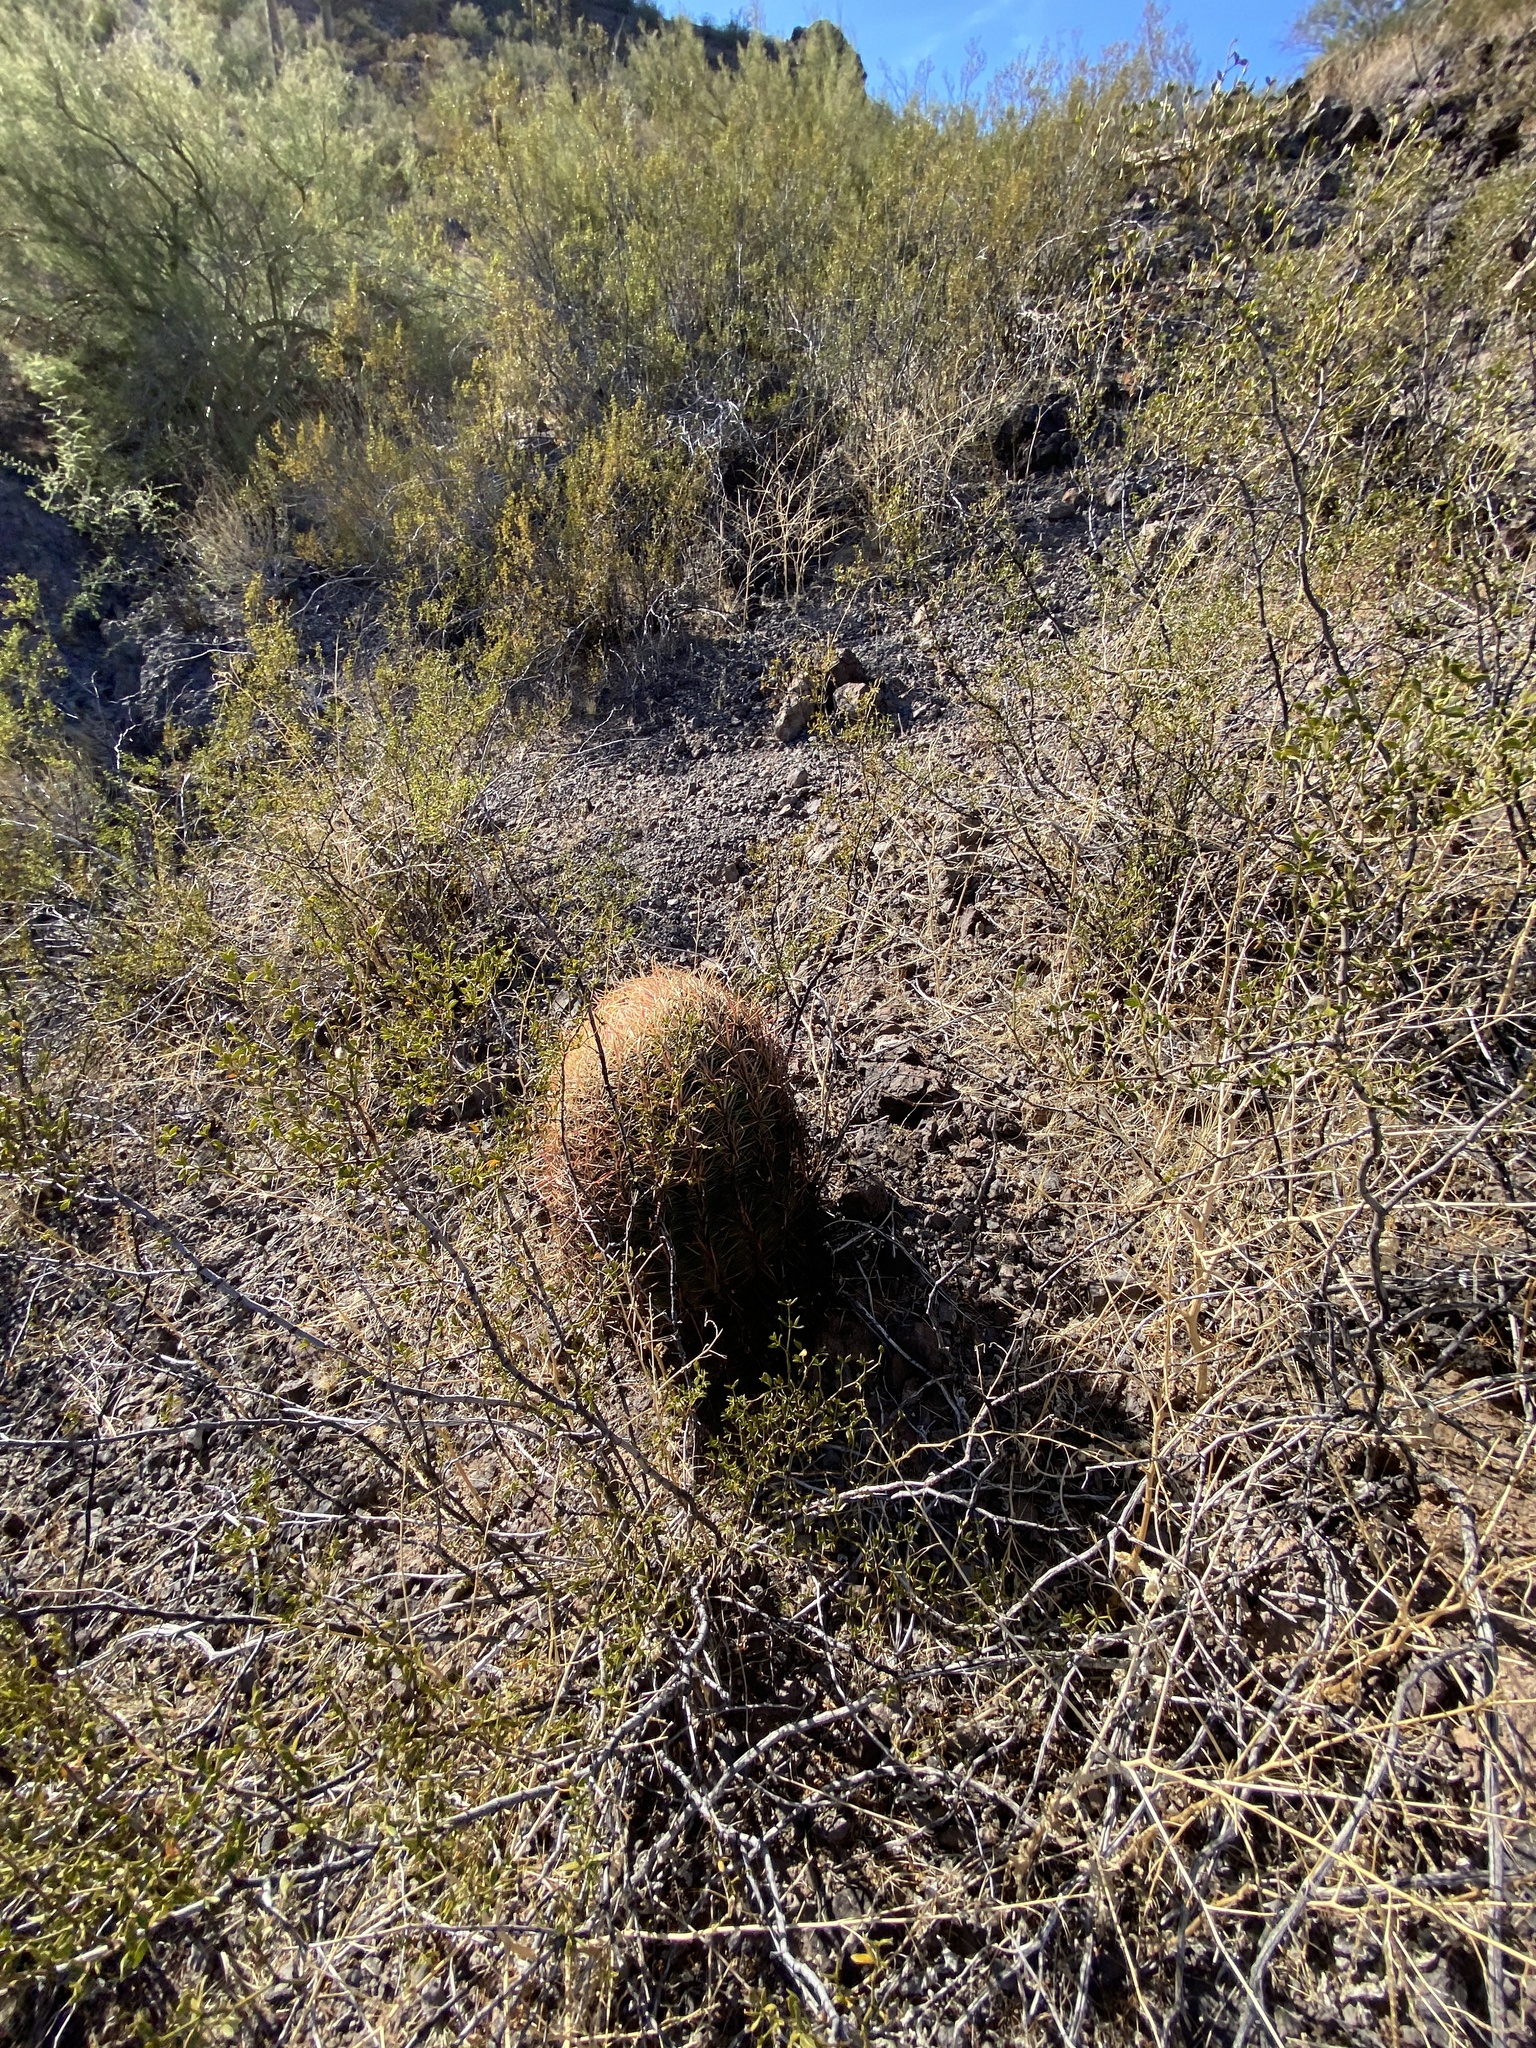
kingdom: Plantae
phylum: Tracheophyta
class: Magnoliopsida
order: Caryophyllales
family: Cactaceae
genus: Ferocactus
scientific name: Ferocactus cylindraceus
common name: California barrel cactus
